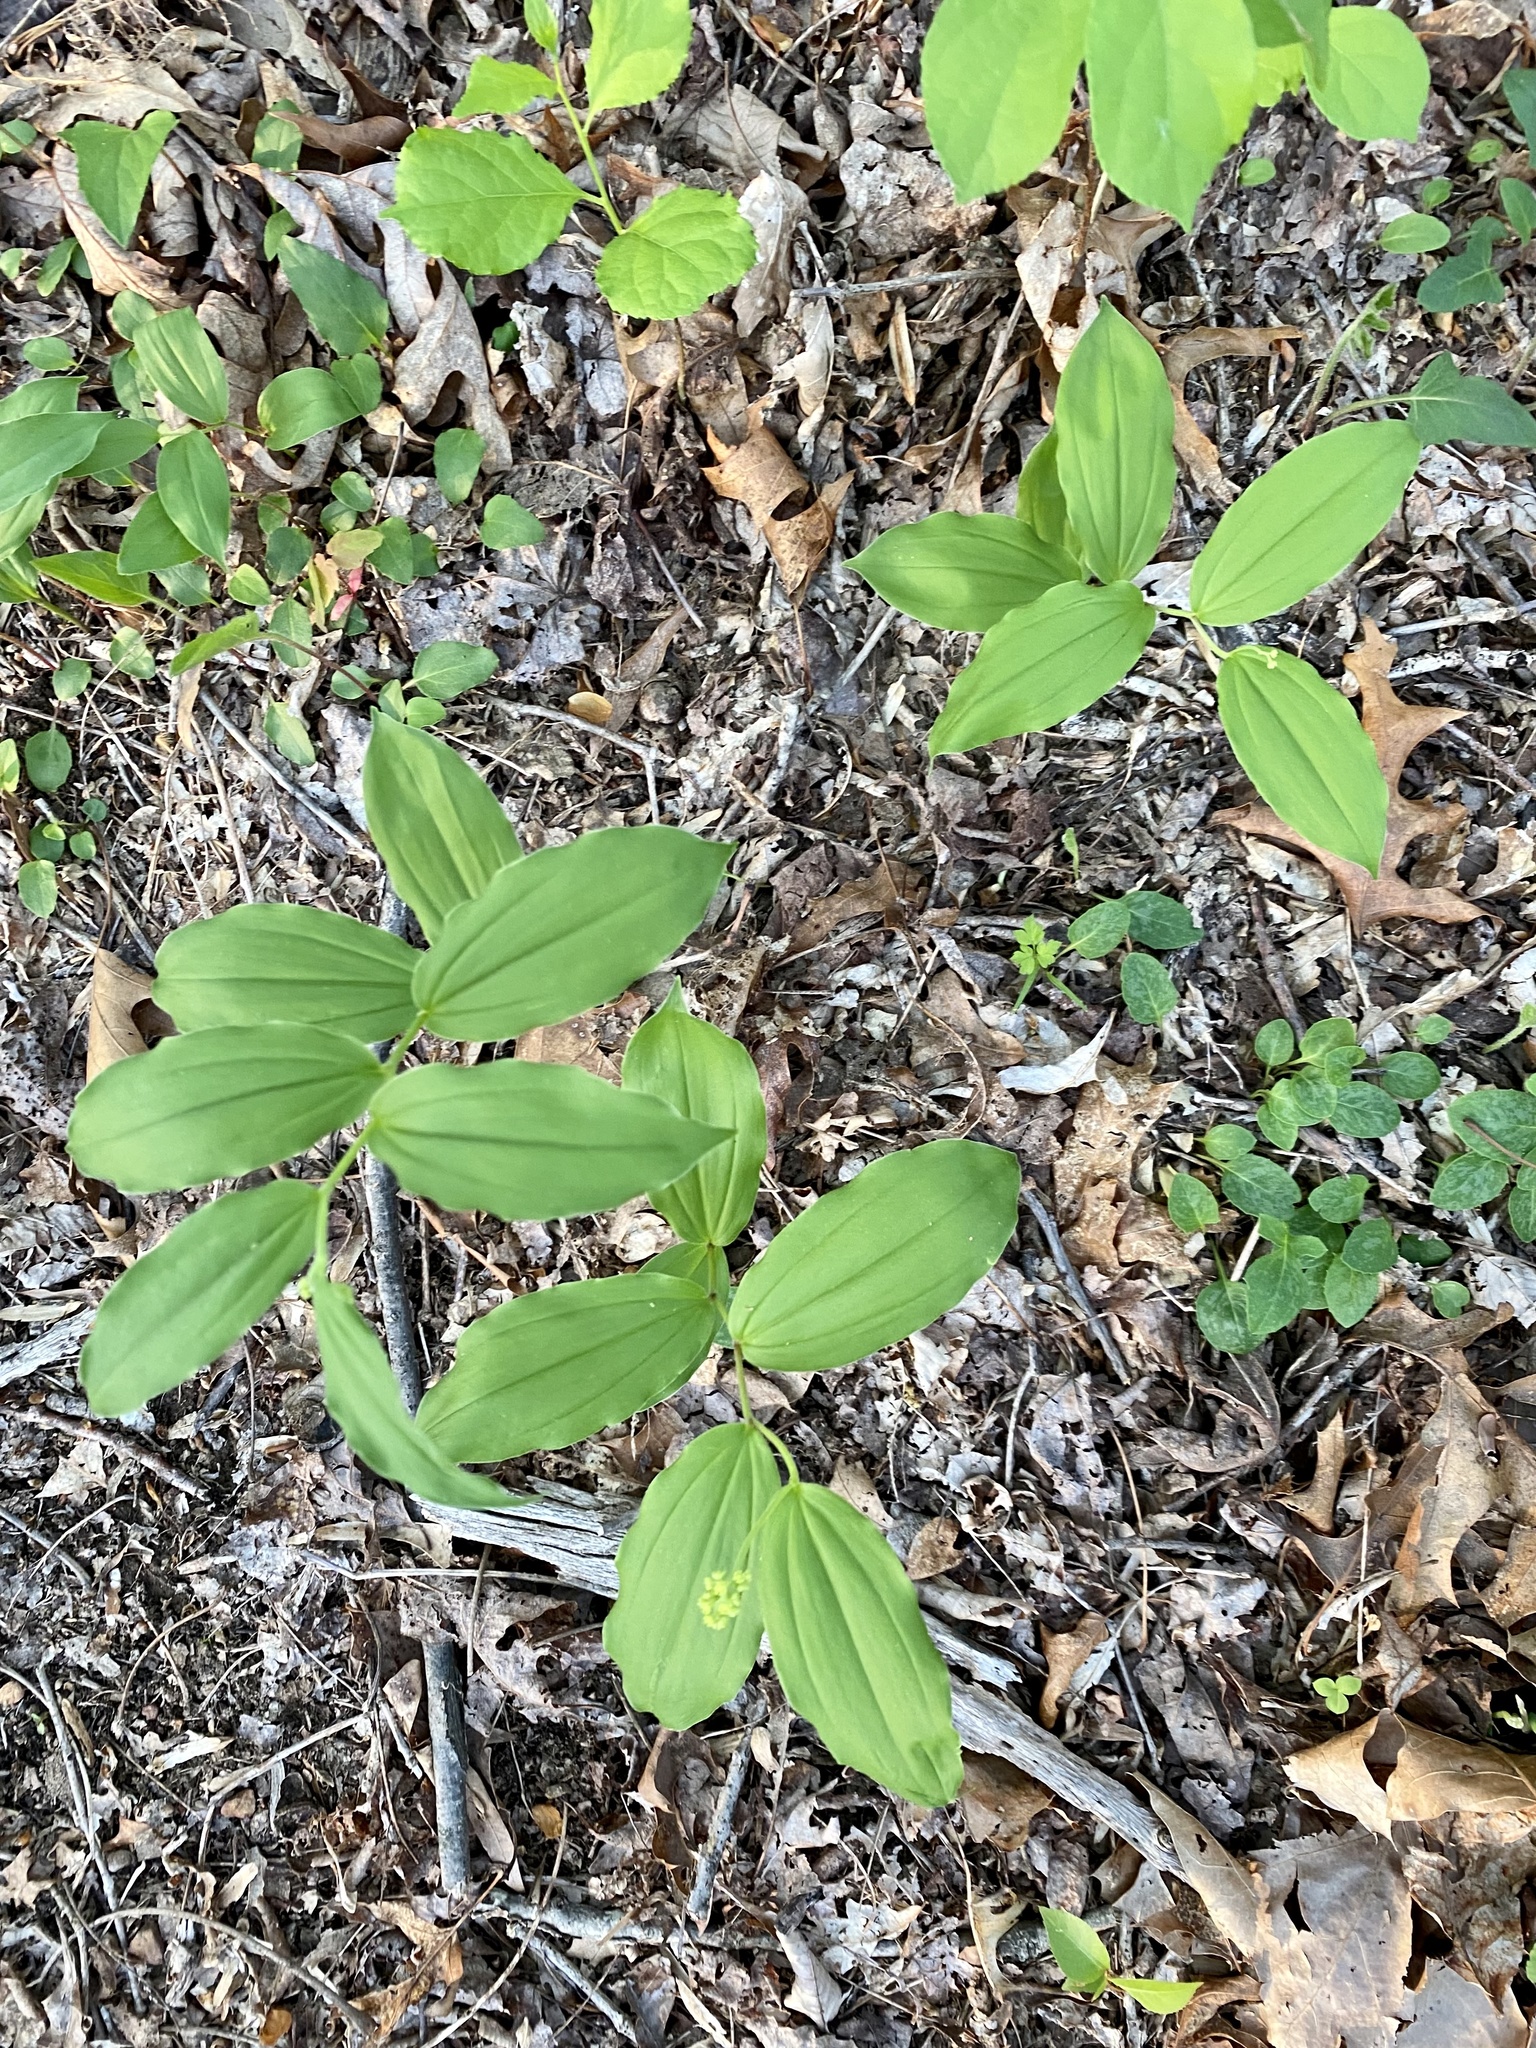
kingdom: Plantae
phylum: Tracheophyta
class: Liliopsida
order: Asparagales
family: Asparagaceae
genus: Maianthemum
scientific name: Maianthemum racemosum
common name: False spikenard
